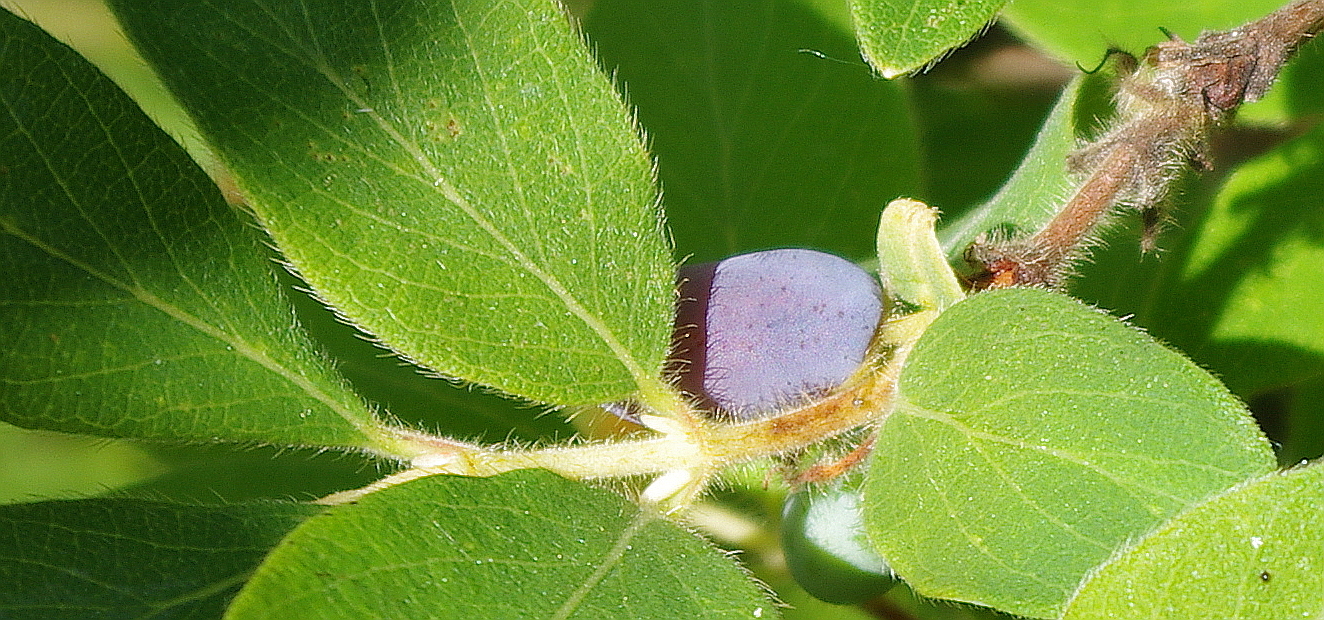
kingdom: Plantae
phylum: Tracheophyta
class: Magnoliopsida
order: Dipsacales
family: Caprifoliaceae
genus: Lonicera
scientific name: Lonicera caerulea
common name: Blue honeysuckle
